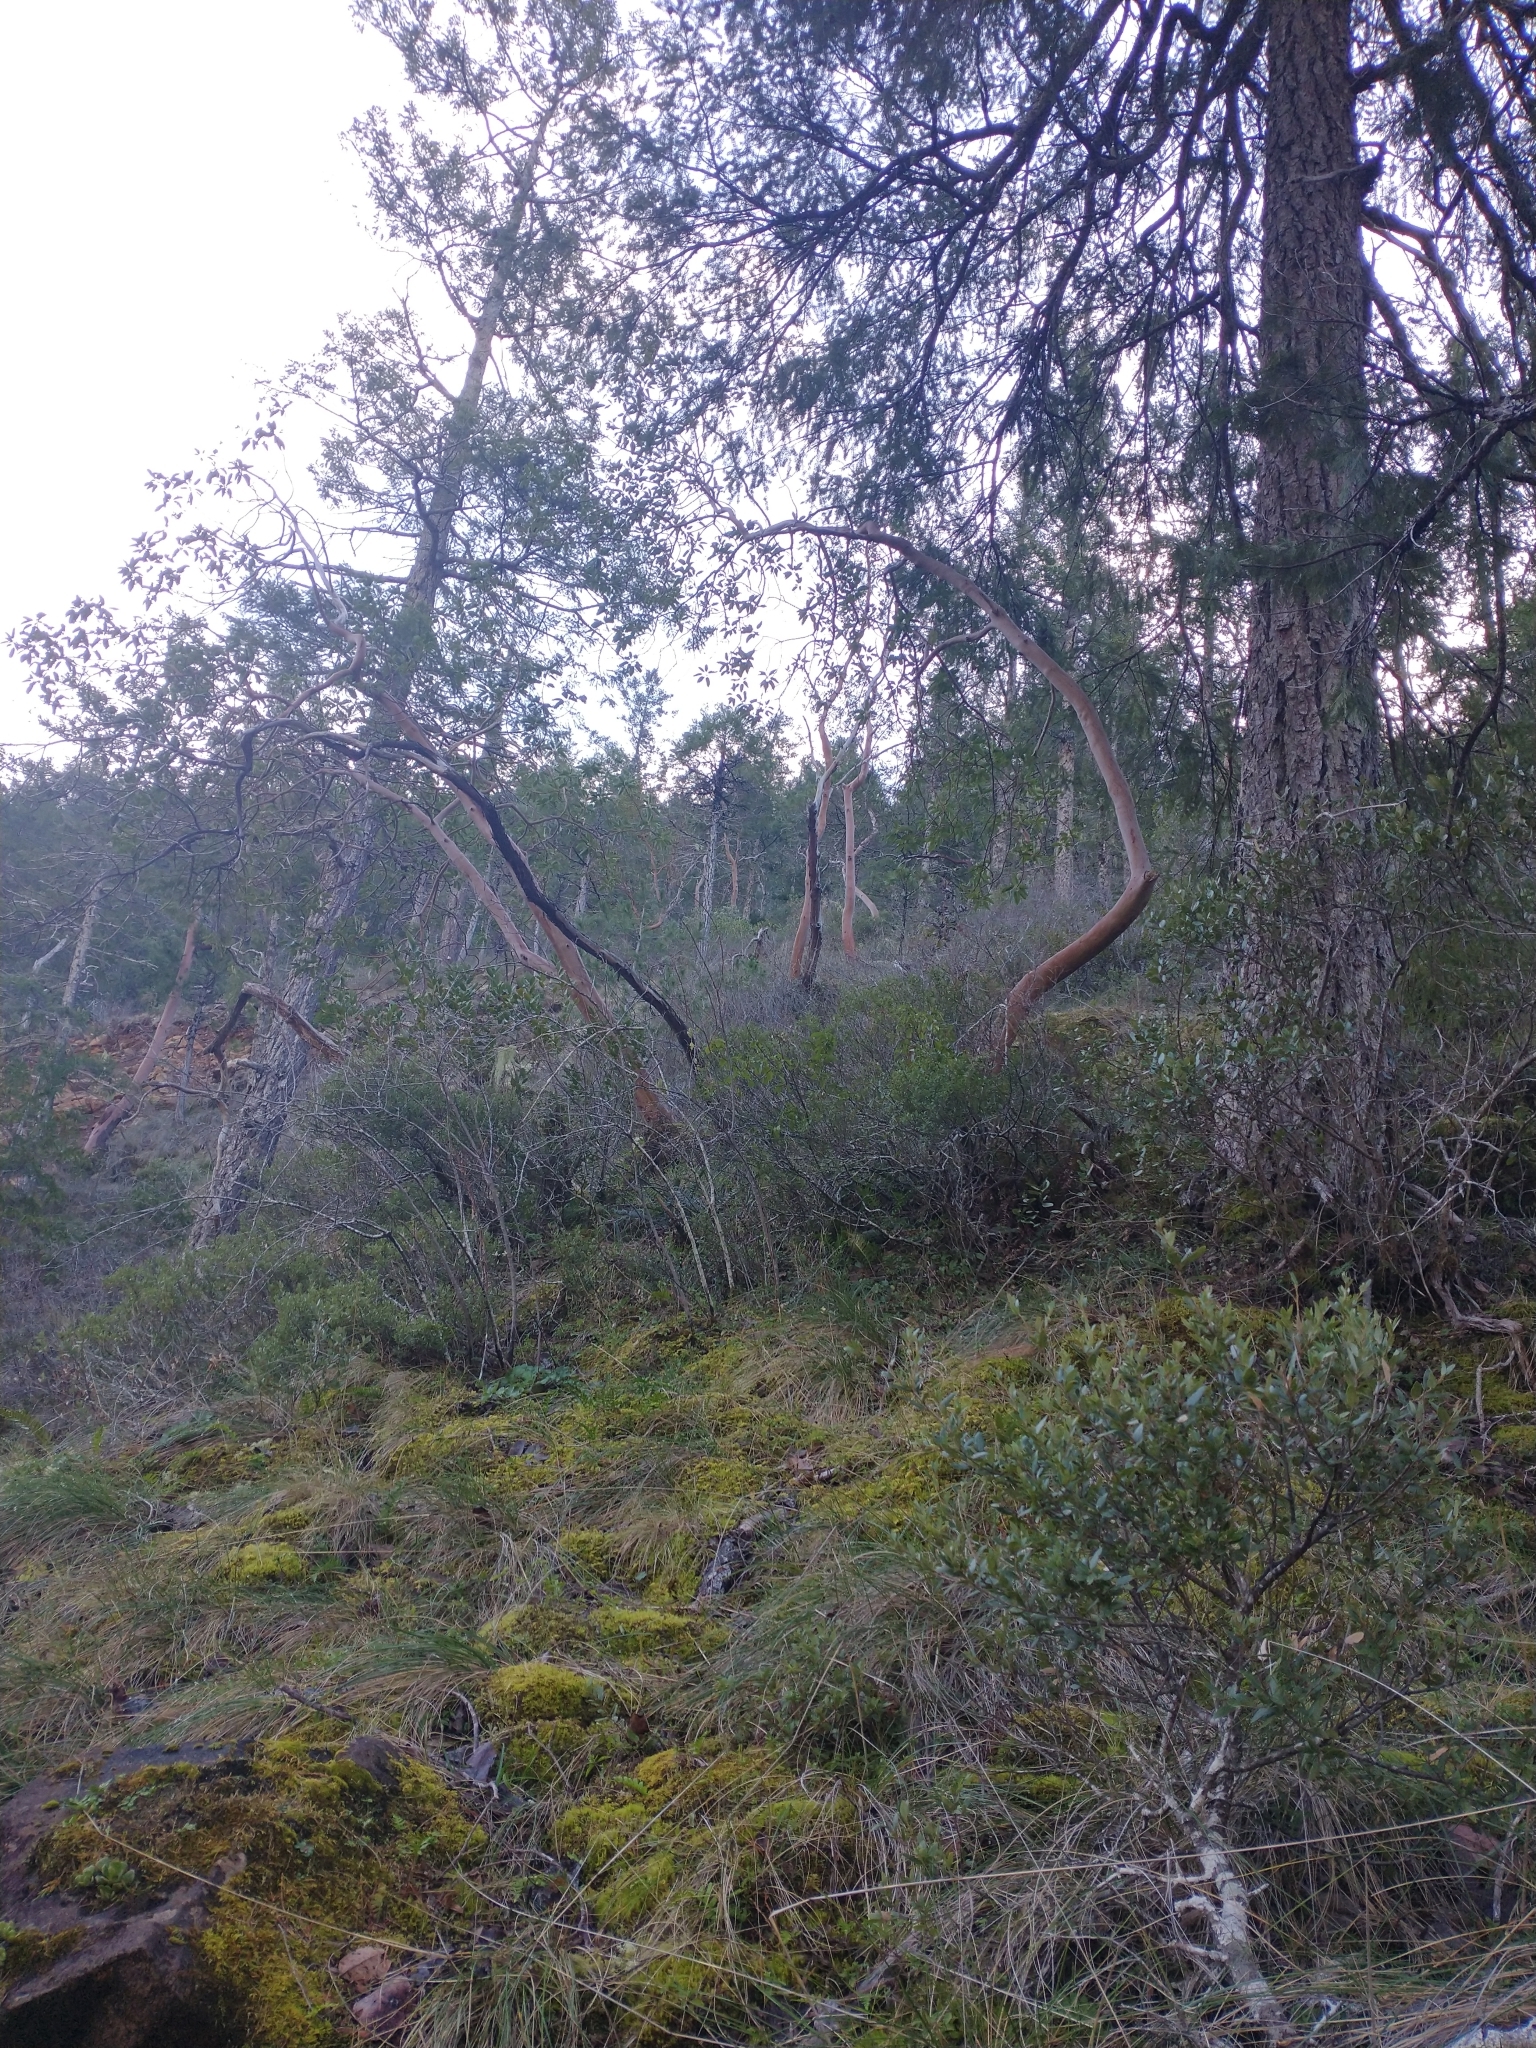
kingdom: Plantae
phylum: Tracheophyta
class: Magnoliopsida
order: Ericales
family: Ericaceae
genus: Arbutus
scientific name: Arbutus menziesii
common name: Pacific madrone
